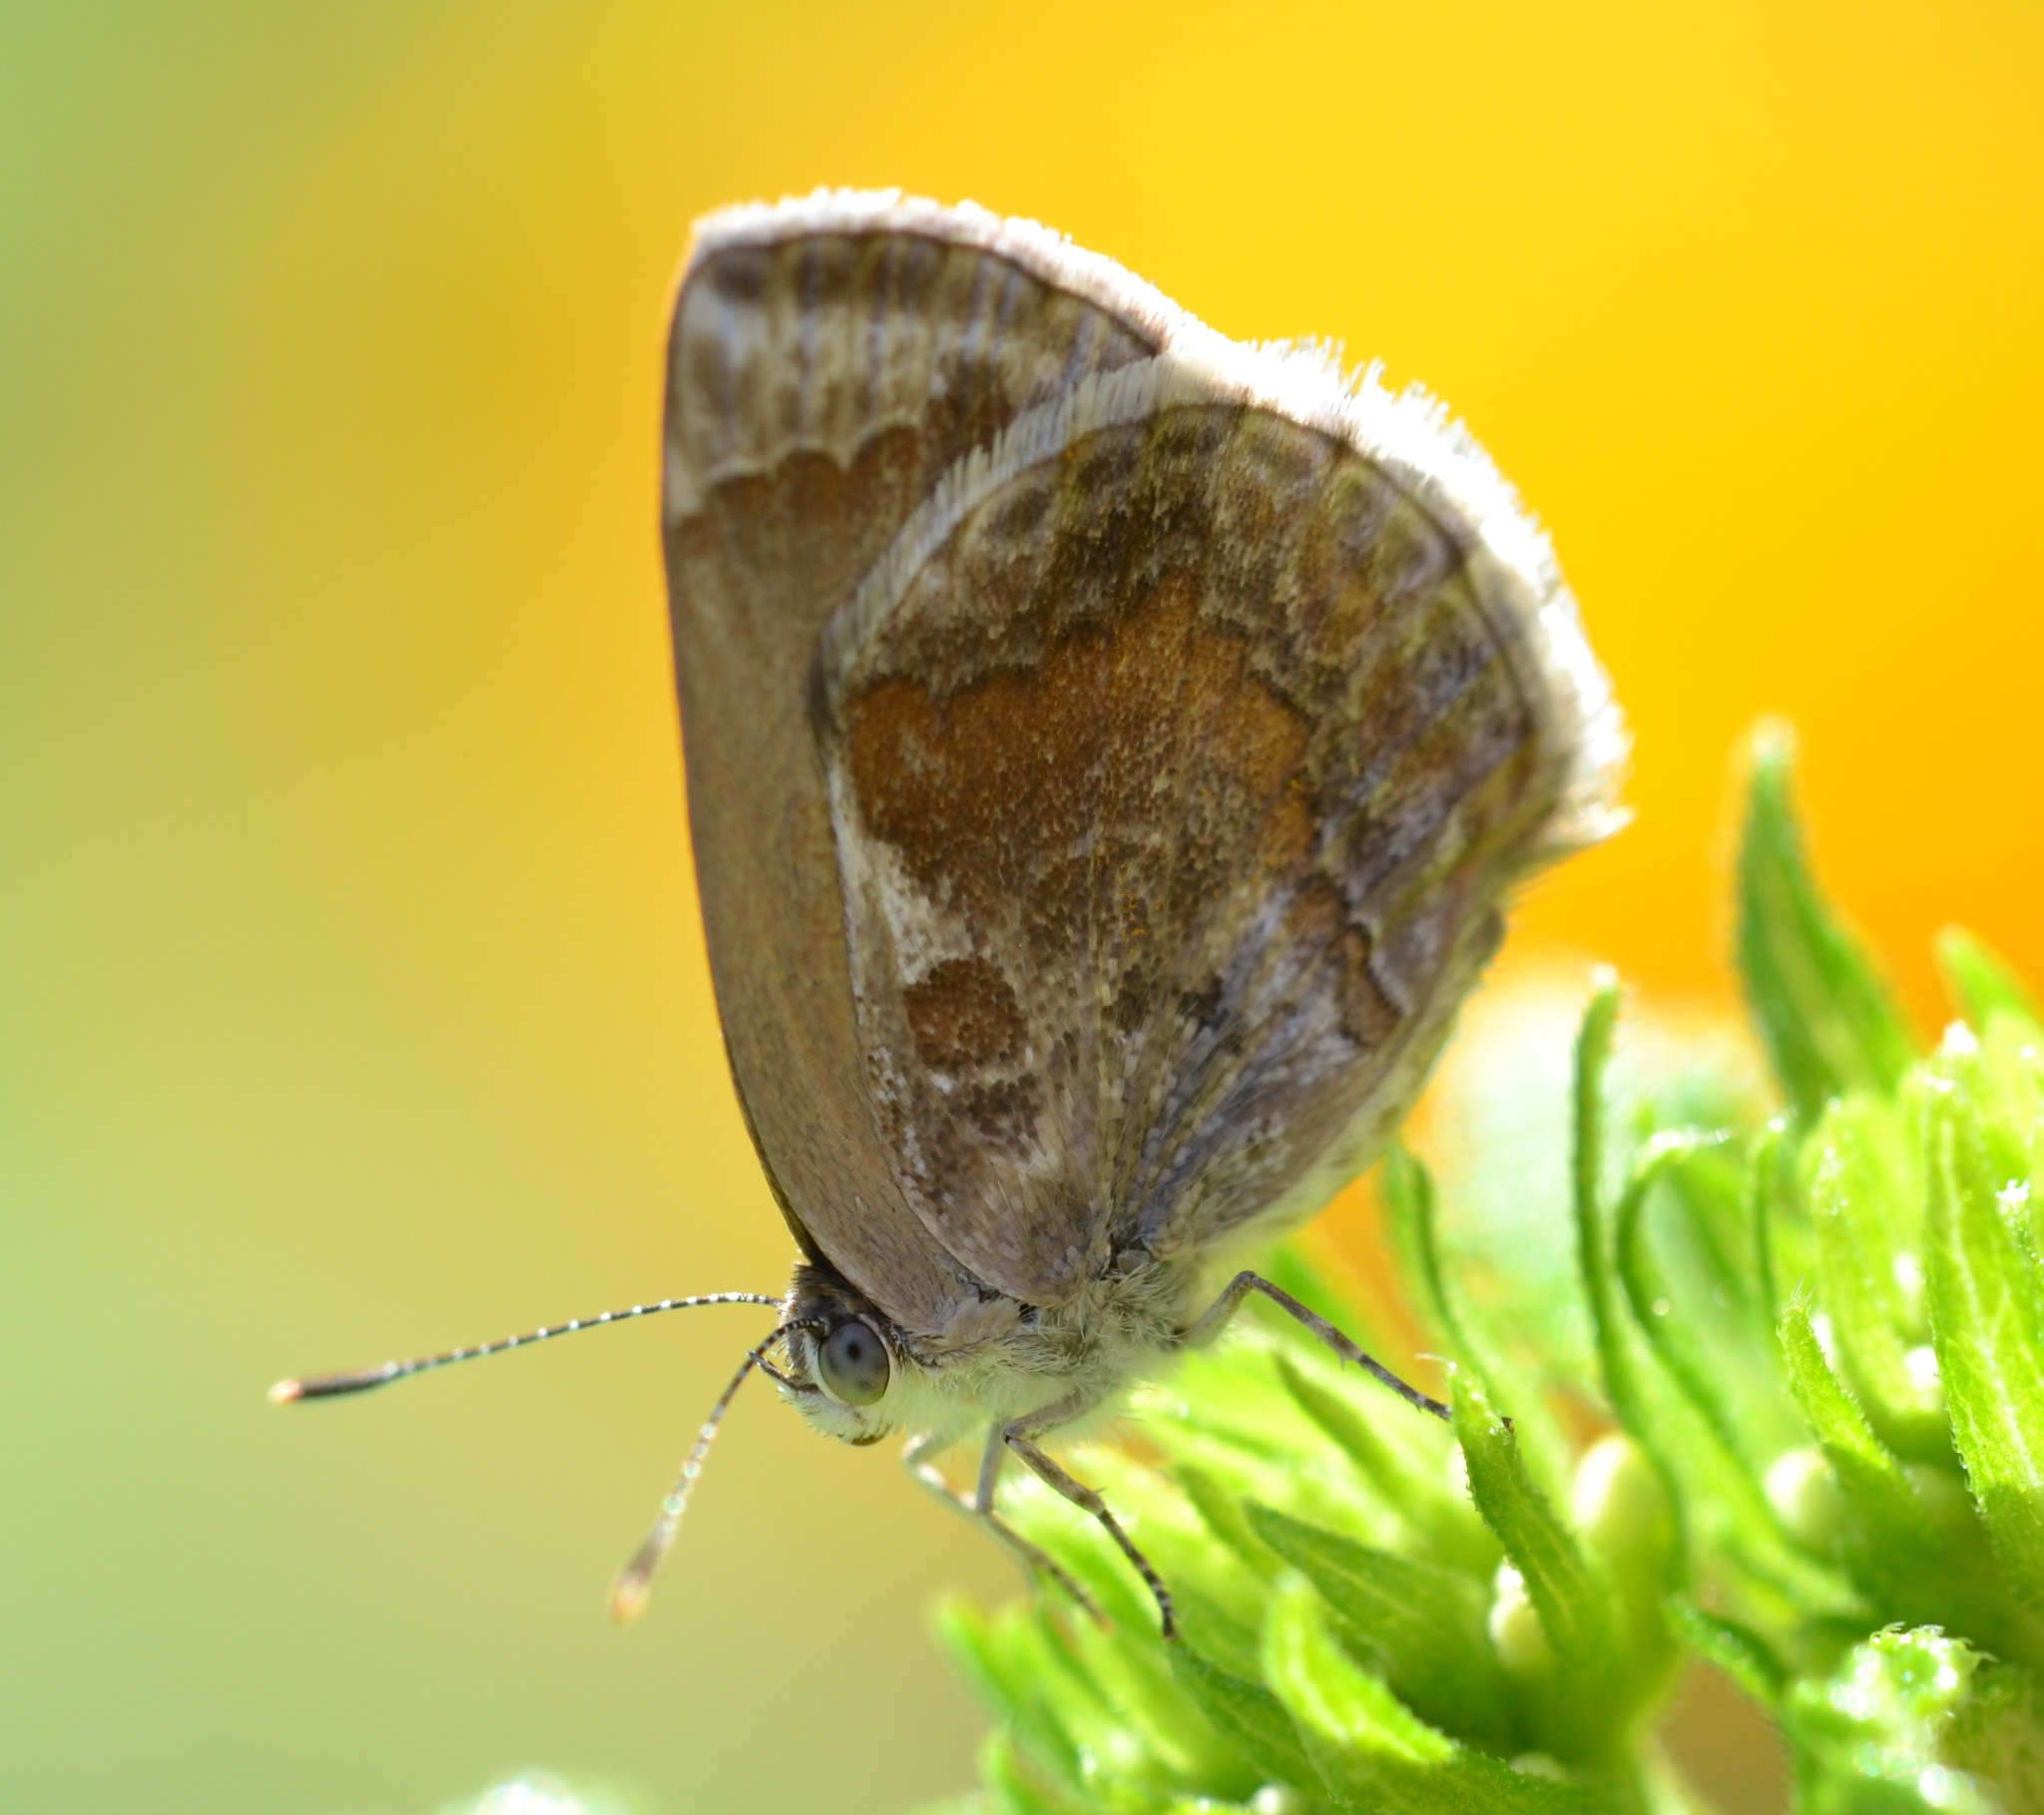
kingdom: Animalia
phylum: Arthropoda
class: Insecta
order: Lepidoptera
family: Lycaenidae
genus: Strymon
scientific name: Strymon bazochii
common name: Lantana scrub-hairstreak
